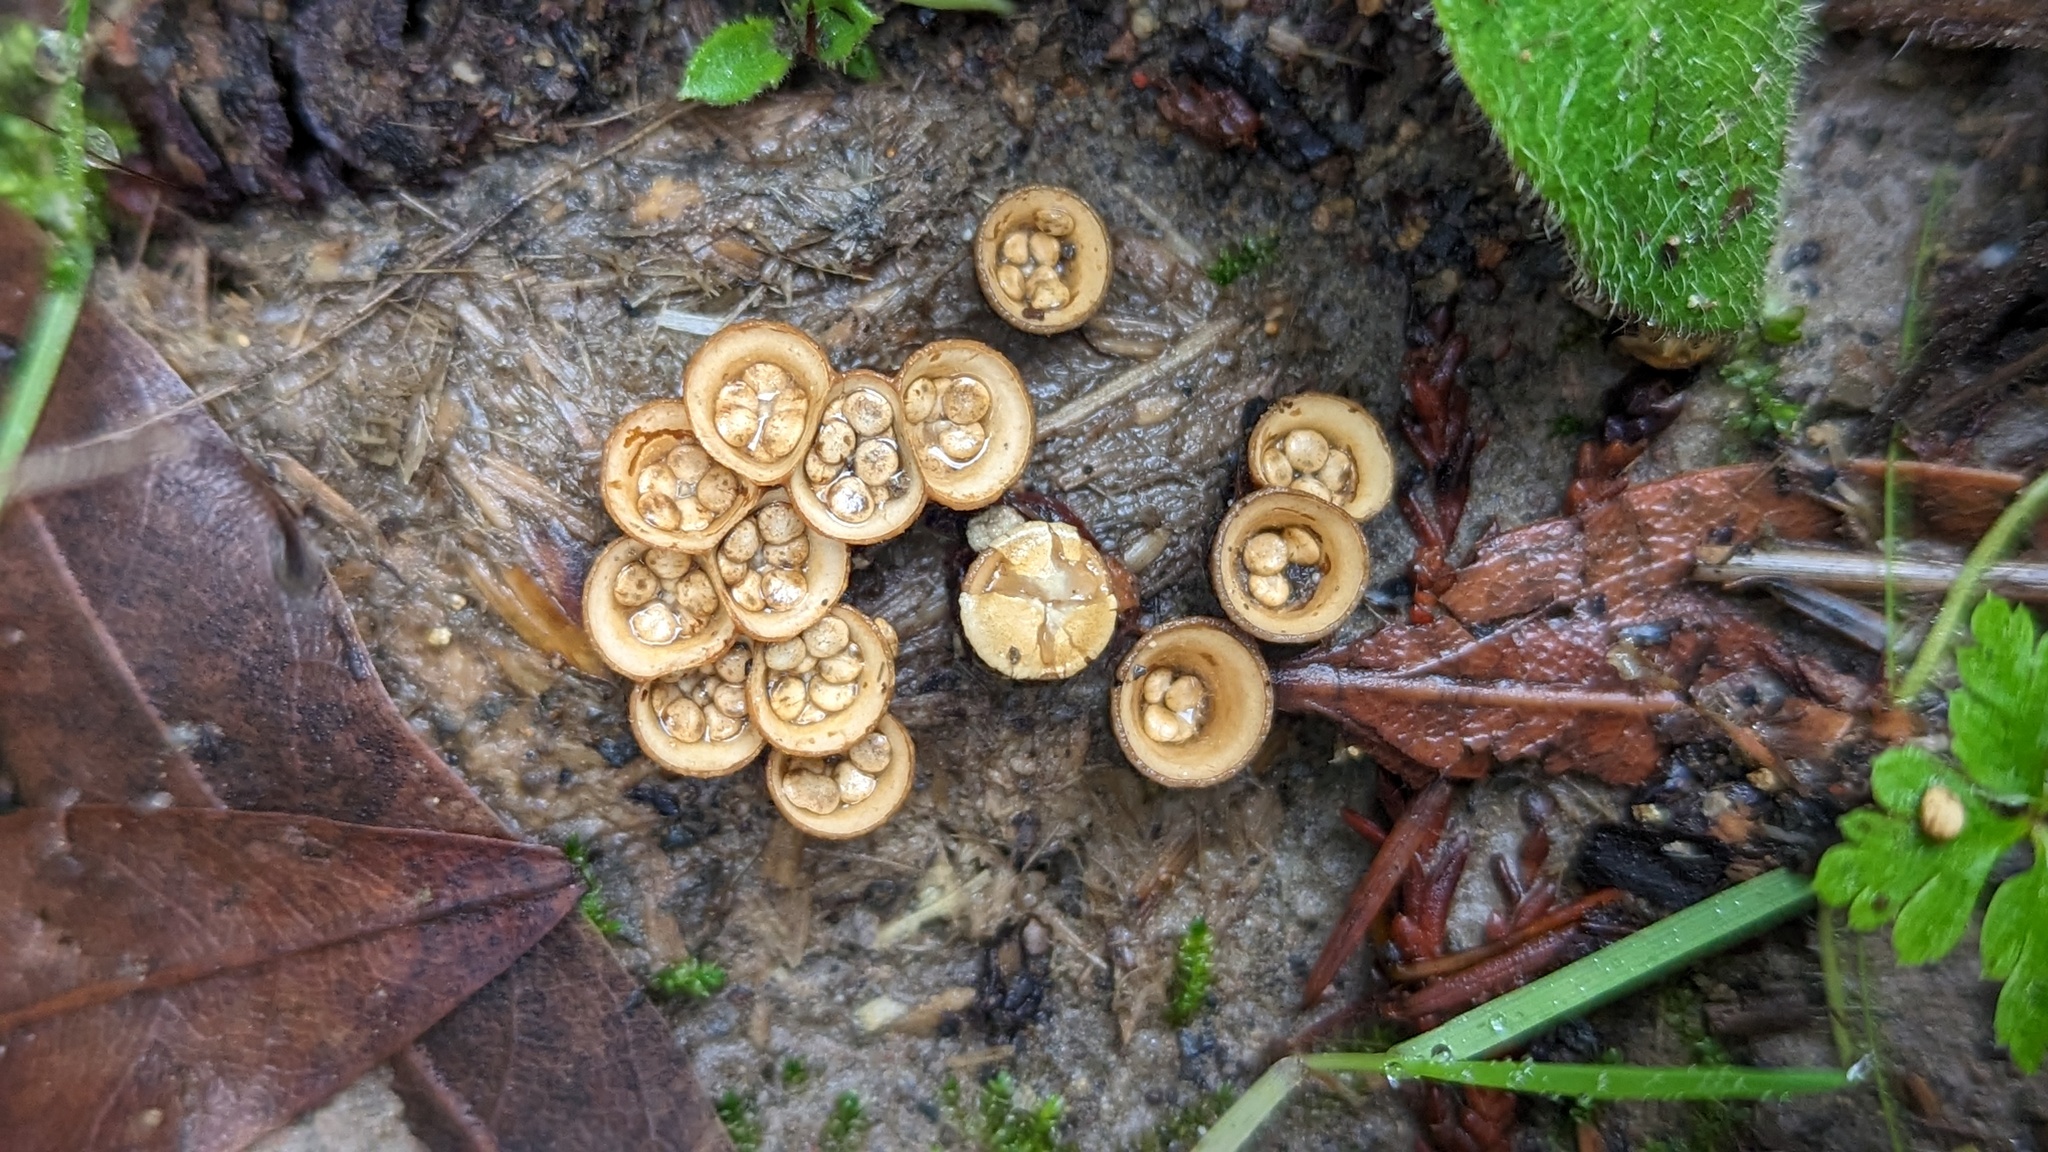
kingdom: Fungi
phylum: Basidiomycota
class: Agaricomycetes
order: Agaricales
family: Nidulariaceae
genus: Crucibulum
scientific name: Crucibulum laeve
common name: Common bird's nest
